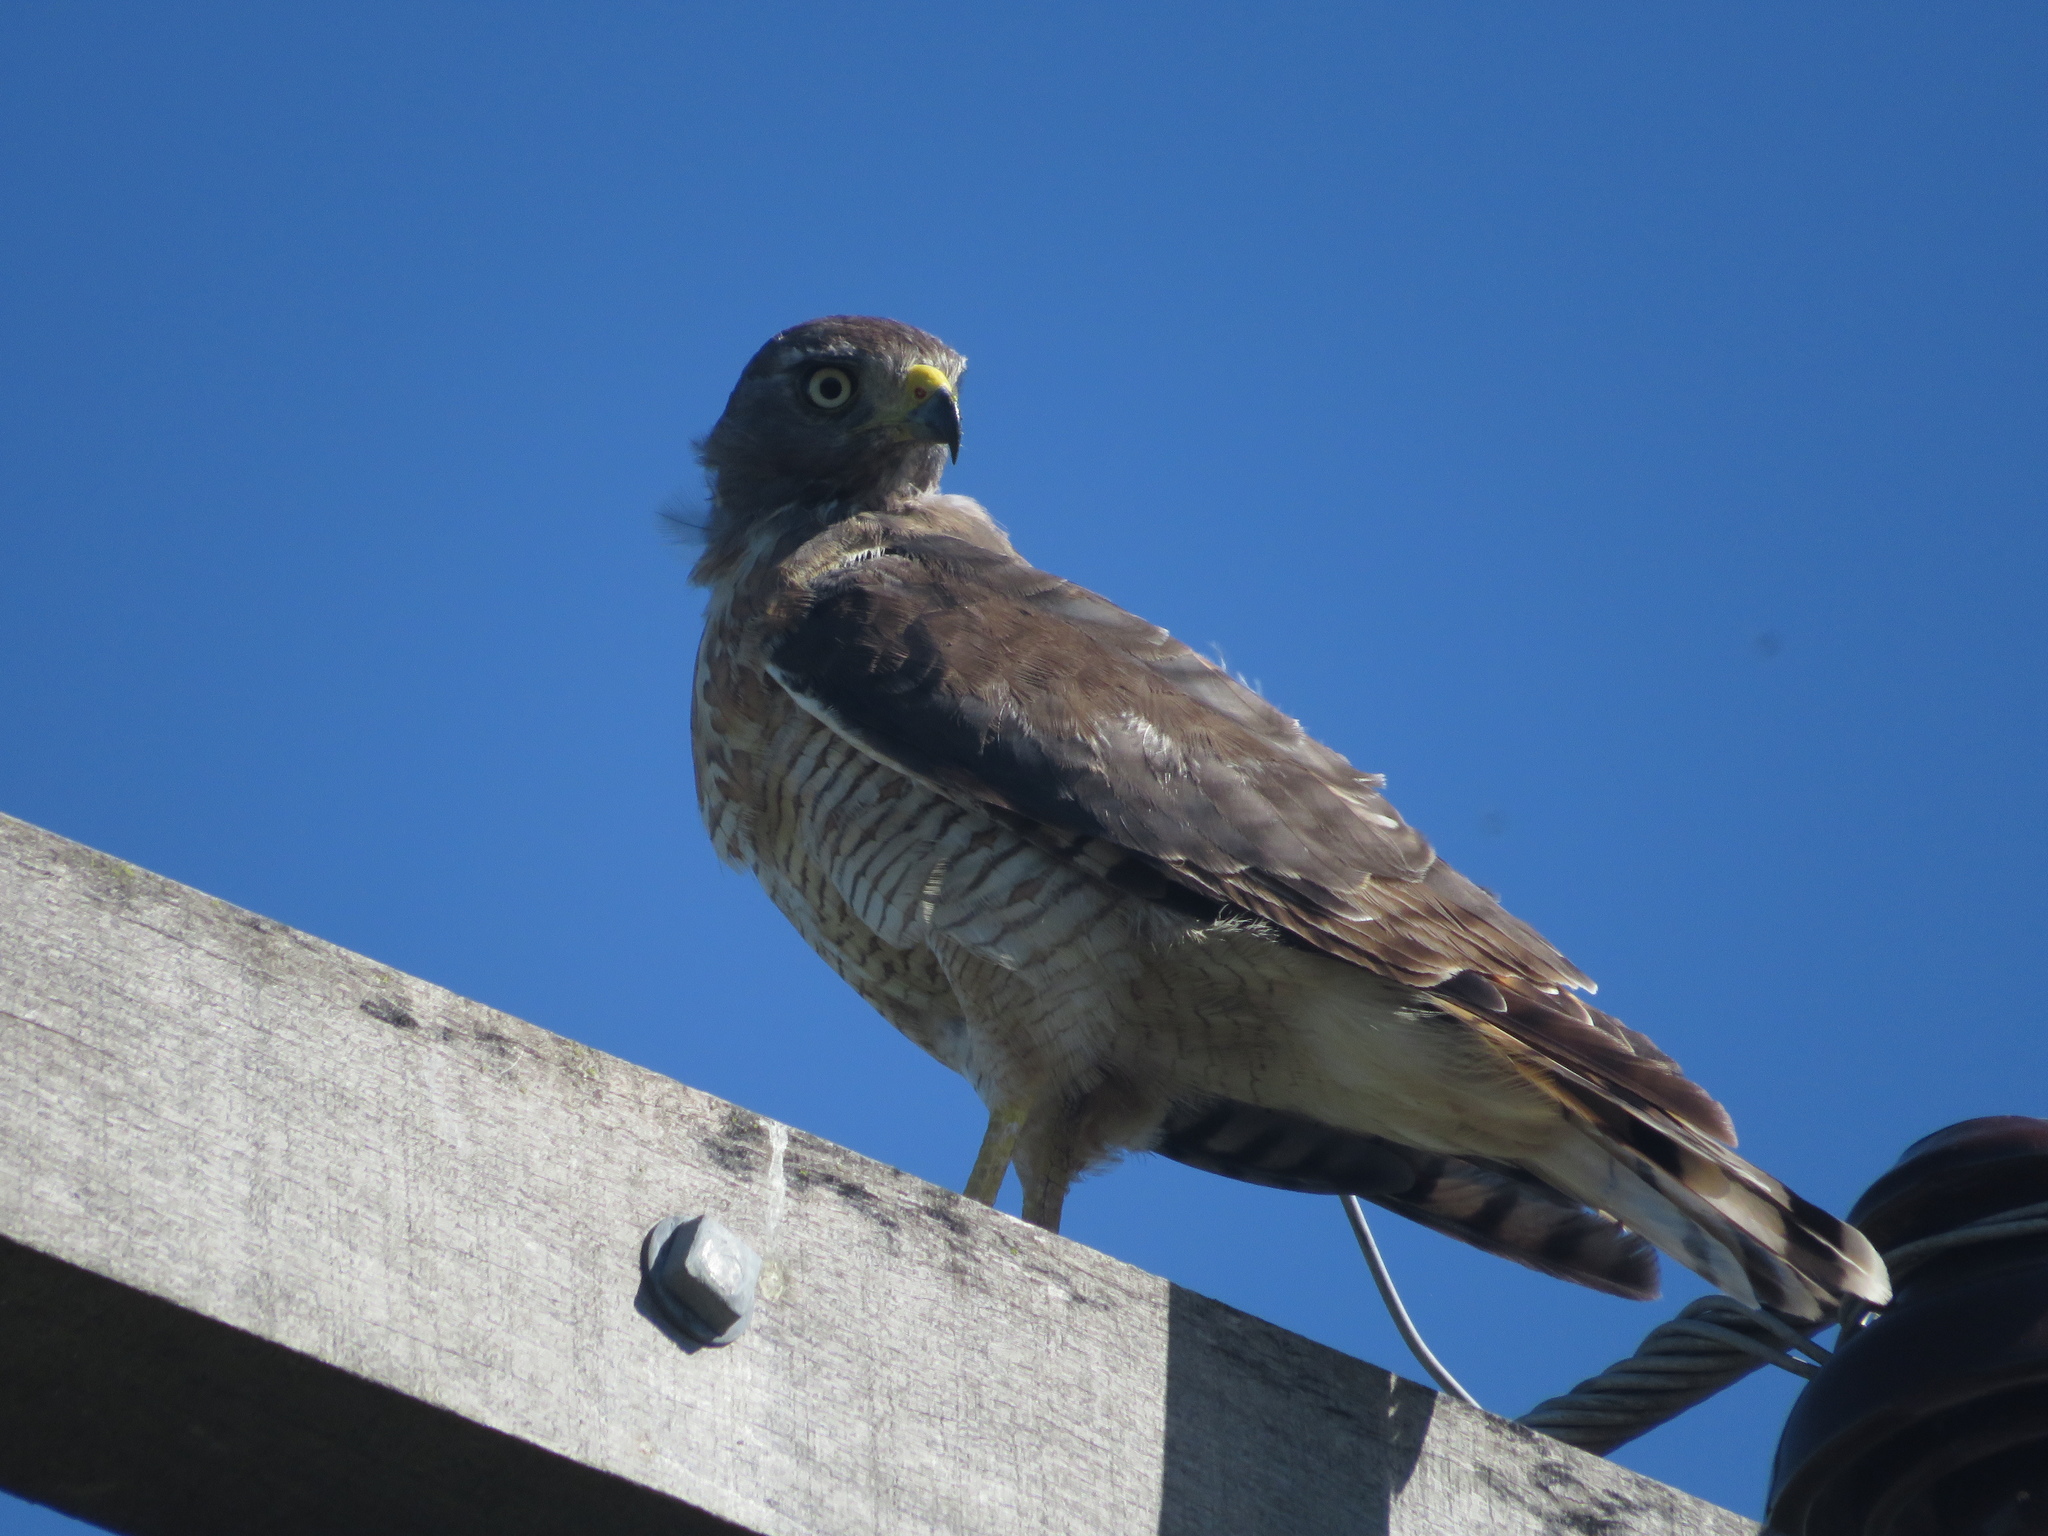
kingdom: Animalia
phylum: Chordata
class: Aves
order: Accipitriformes
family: Accipitridae
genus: Rupornis
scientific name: Rupornis magnirostris
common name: Roadside hawk
